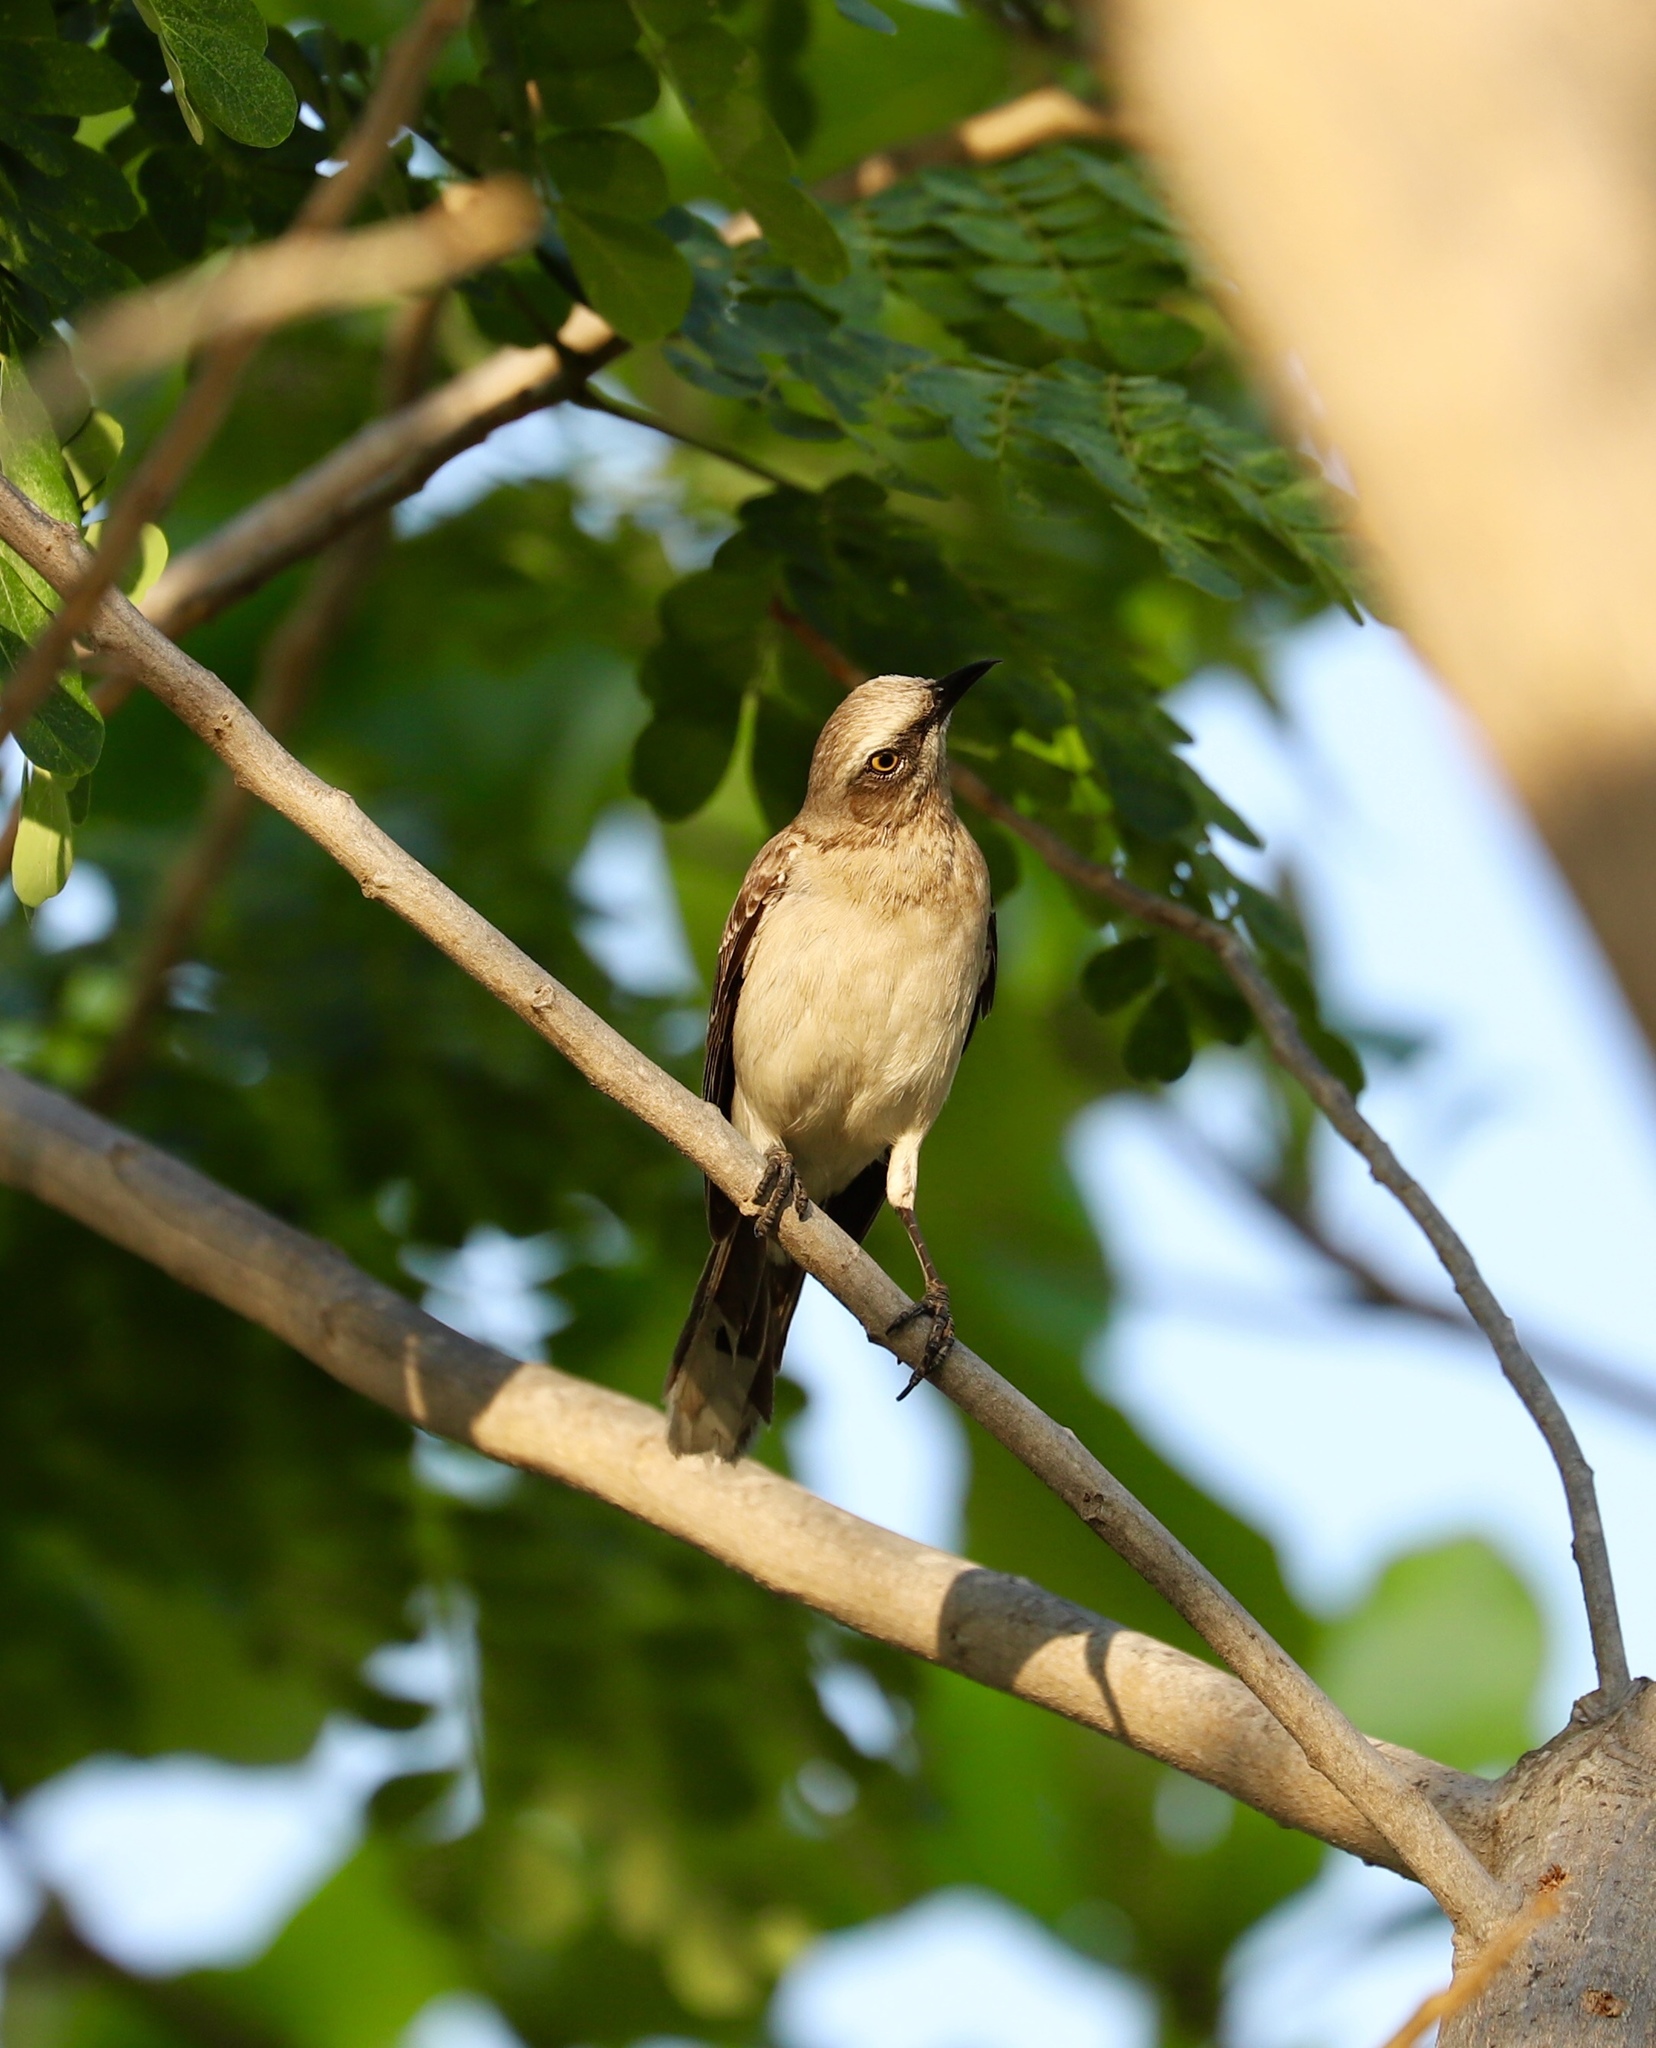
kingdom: Animalia
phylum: Chordata
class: Aves
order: Passeriformes
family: Mimidae
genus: Mimus
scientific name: Mimus gilvus
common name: Tropical mockingbird
